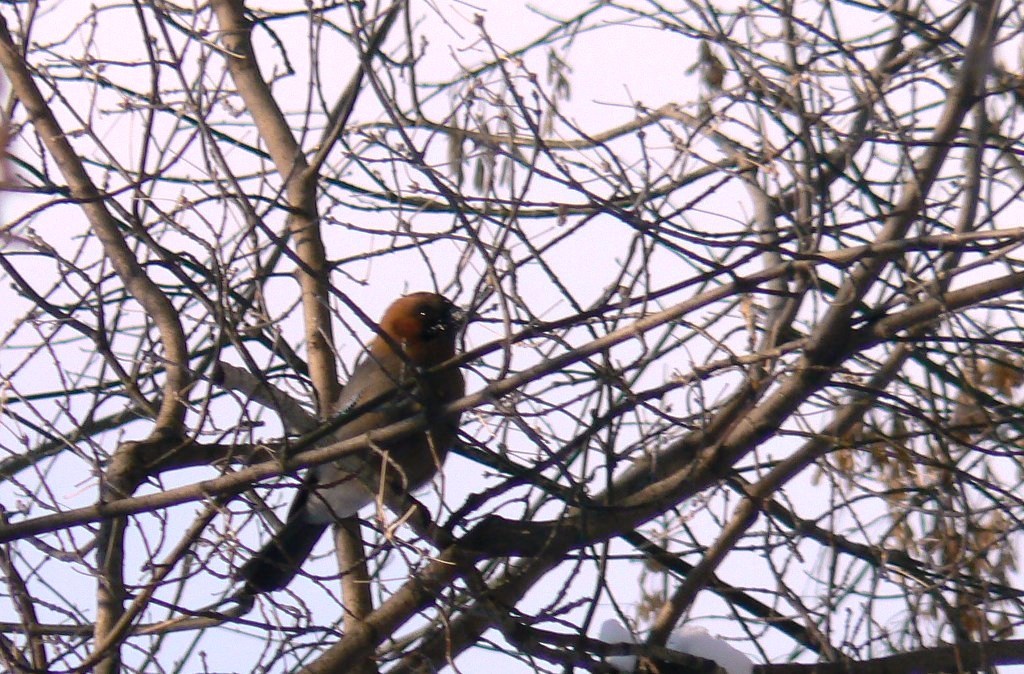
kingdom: Animalia
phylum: Chordata
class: Aves
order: Passeriformes
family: Corvidae
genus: Garrulus
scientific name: Garrulus glandarius
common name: Eurasian jay
